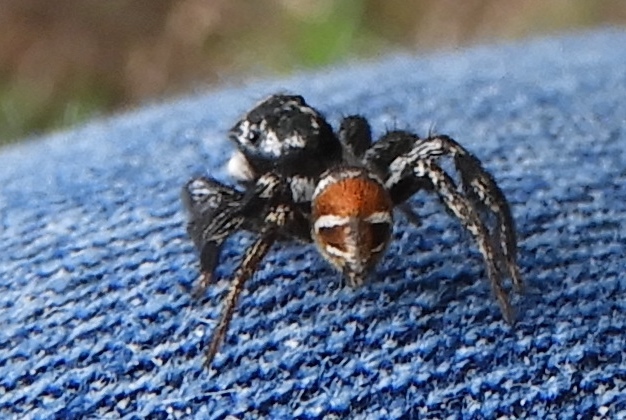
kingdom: Animalia
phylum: Arthropoda
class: Arachnida
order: Araneae
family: Salticidae
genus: Corythalia
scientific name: Corythalia opima
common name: Jumping spiders
